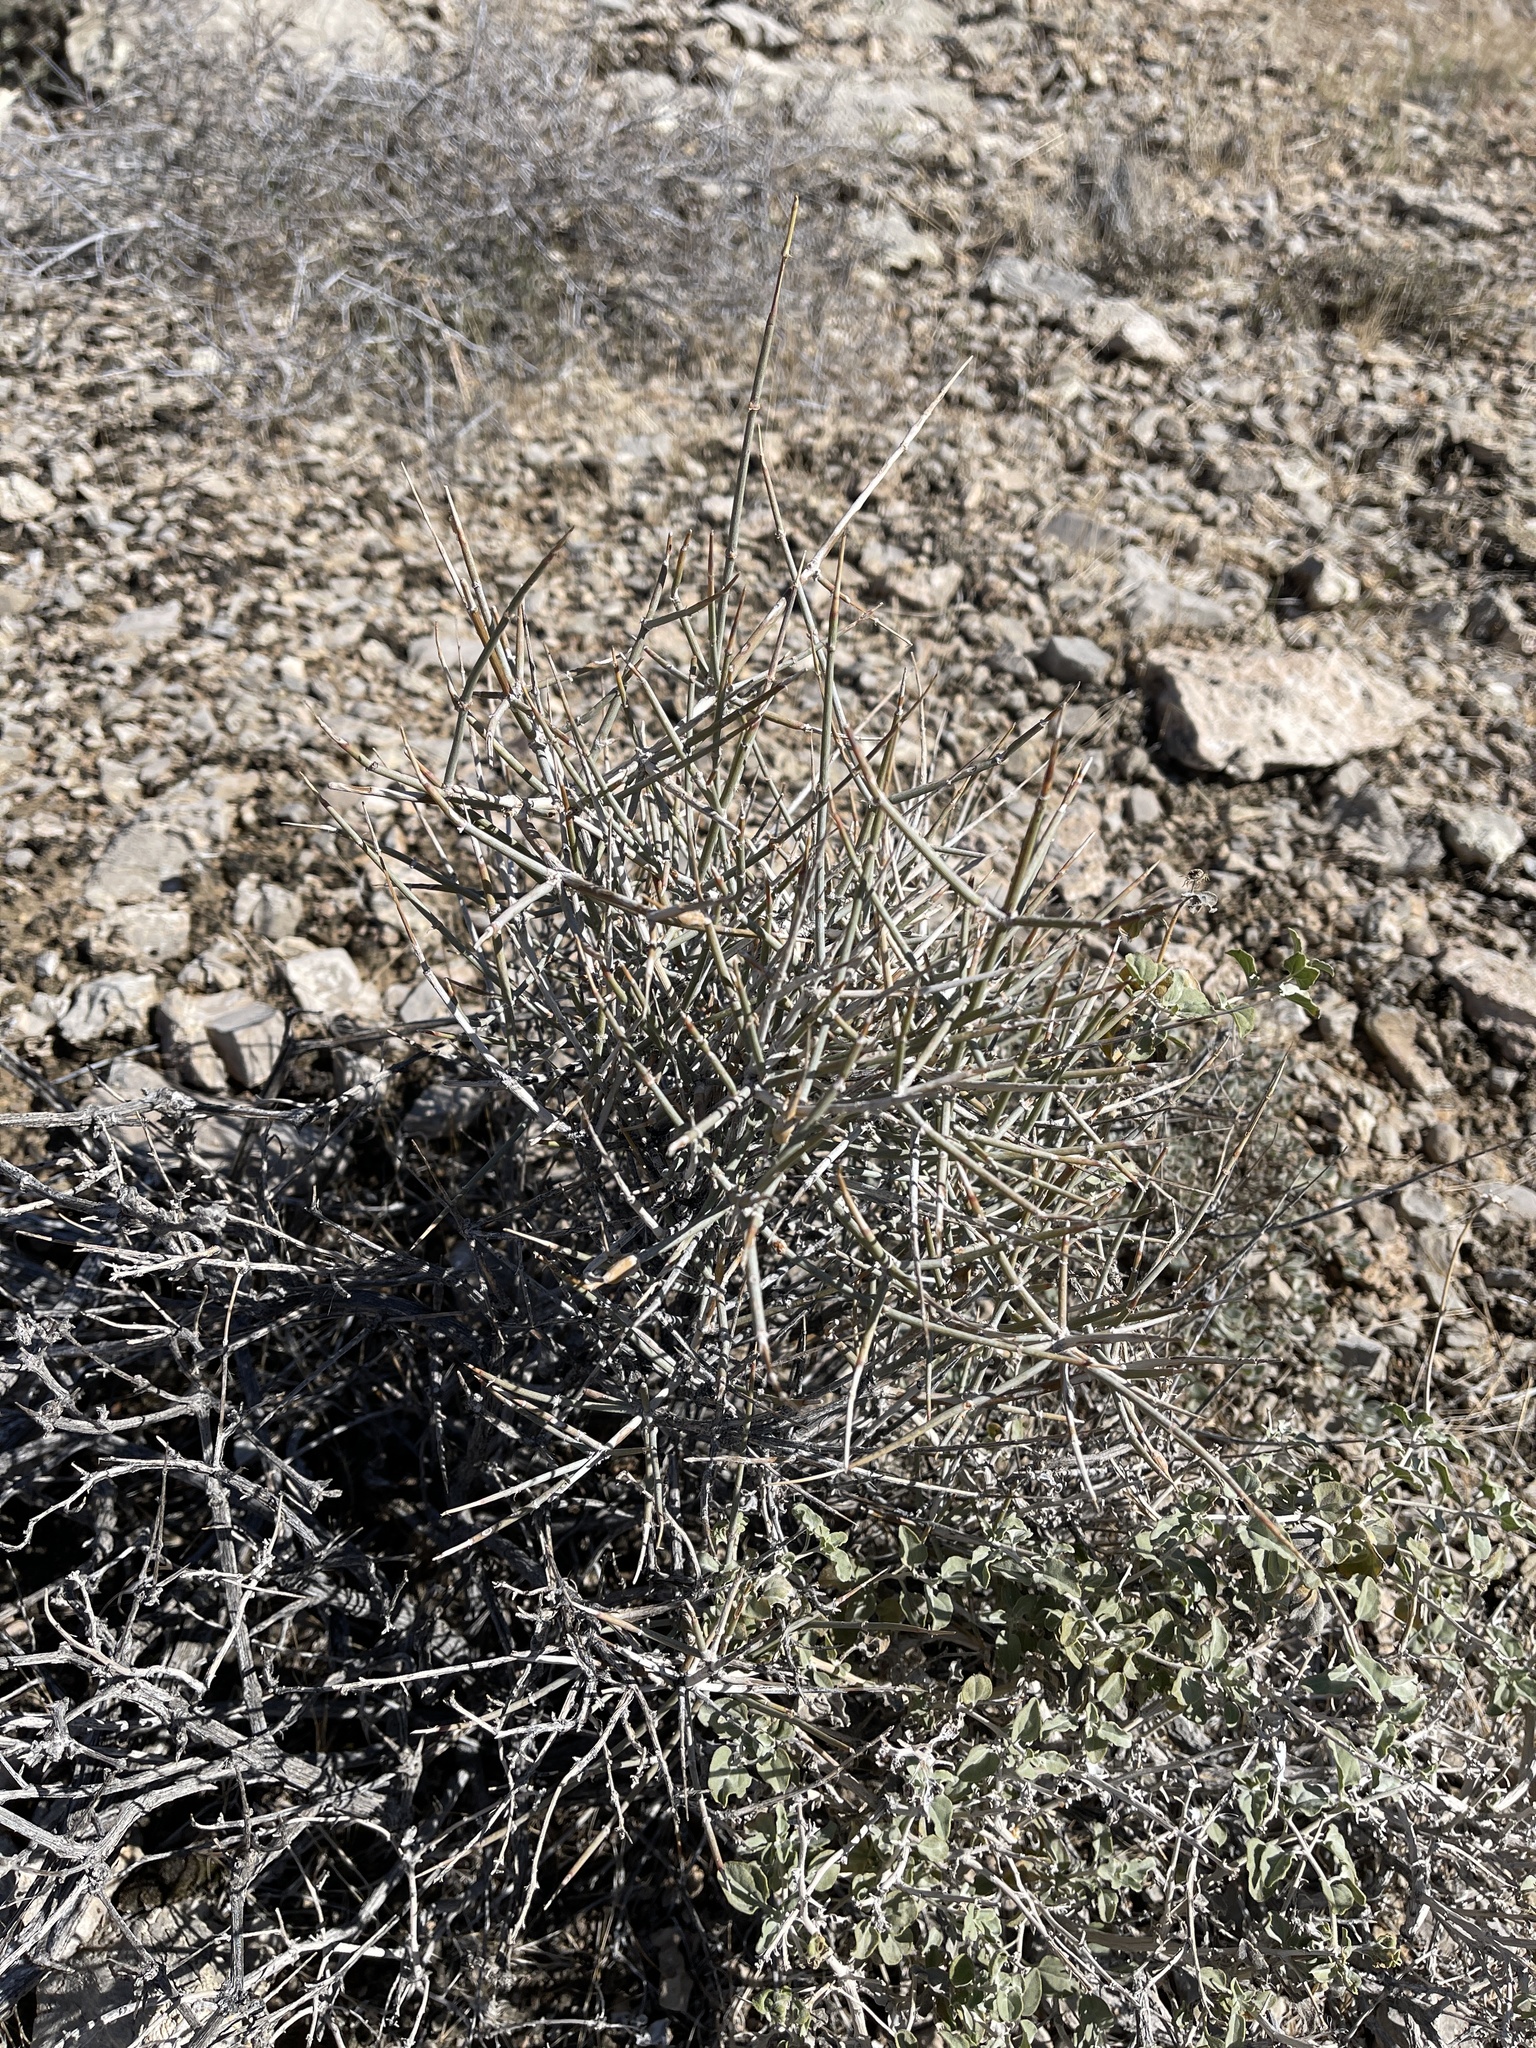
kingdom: Plantae
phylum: Tracheophyta
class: Gnetopsida
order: Ephedrales
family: Ephedraceae
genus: Ephedra
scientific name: Ephedra nevadensis
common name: Gray ephedra
